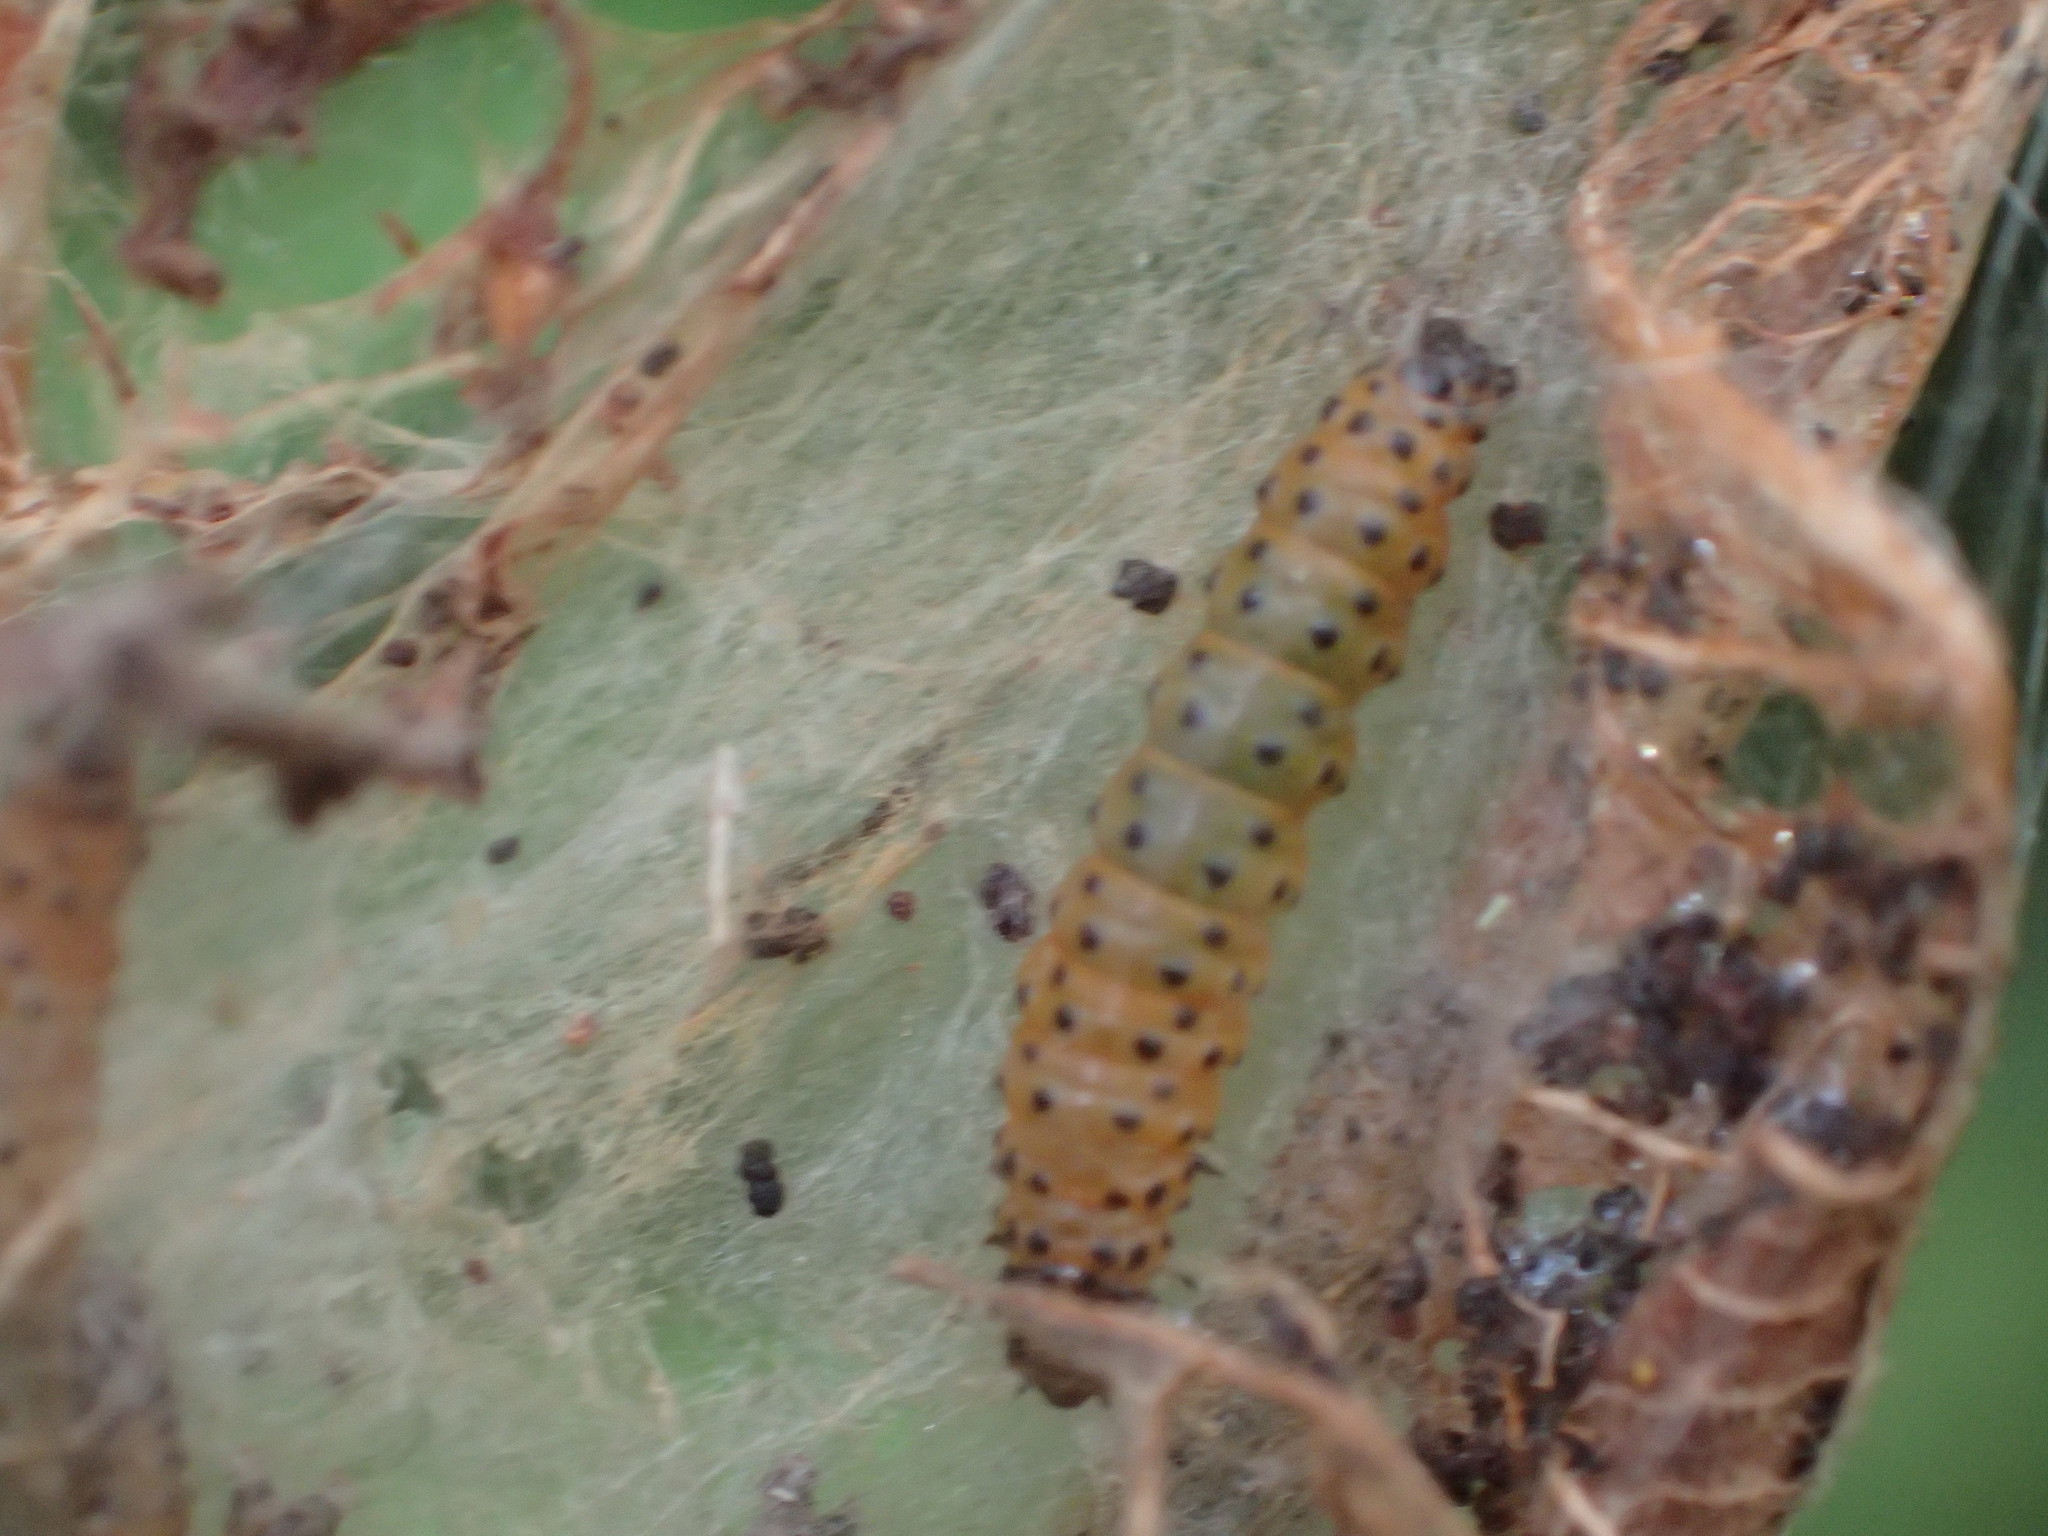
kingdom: Animalia
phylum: Arthropoda
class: Insecta
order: Lepidoptera
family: Crambidae
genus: Saucrobotys
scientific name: Saucrobotys futilalis
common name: Dogbane saucrobotys moth
